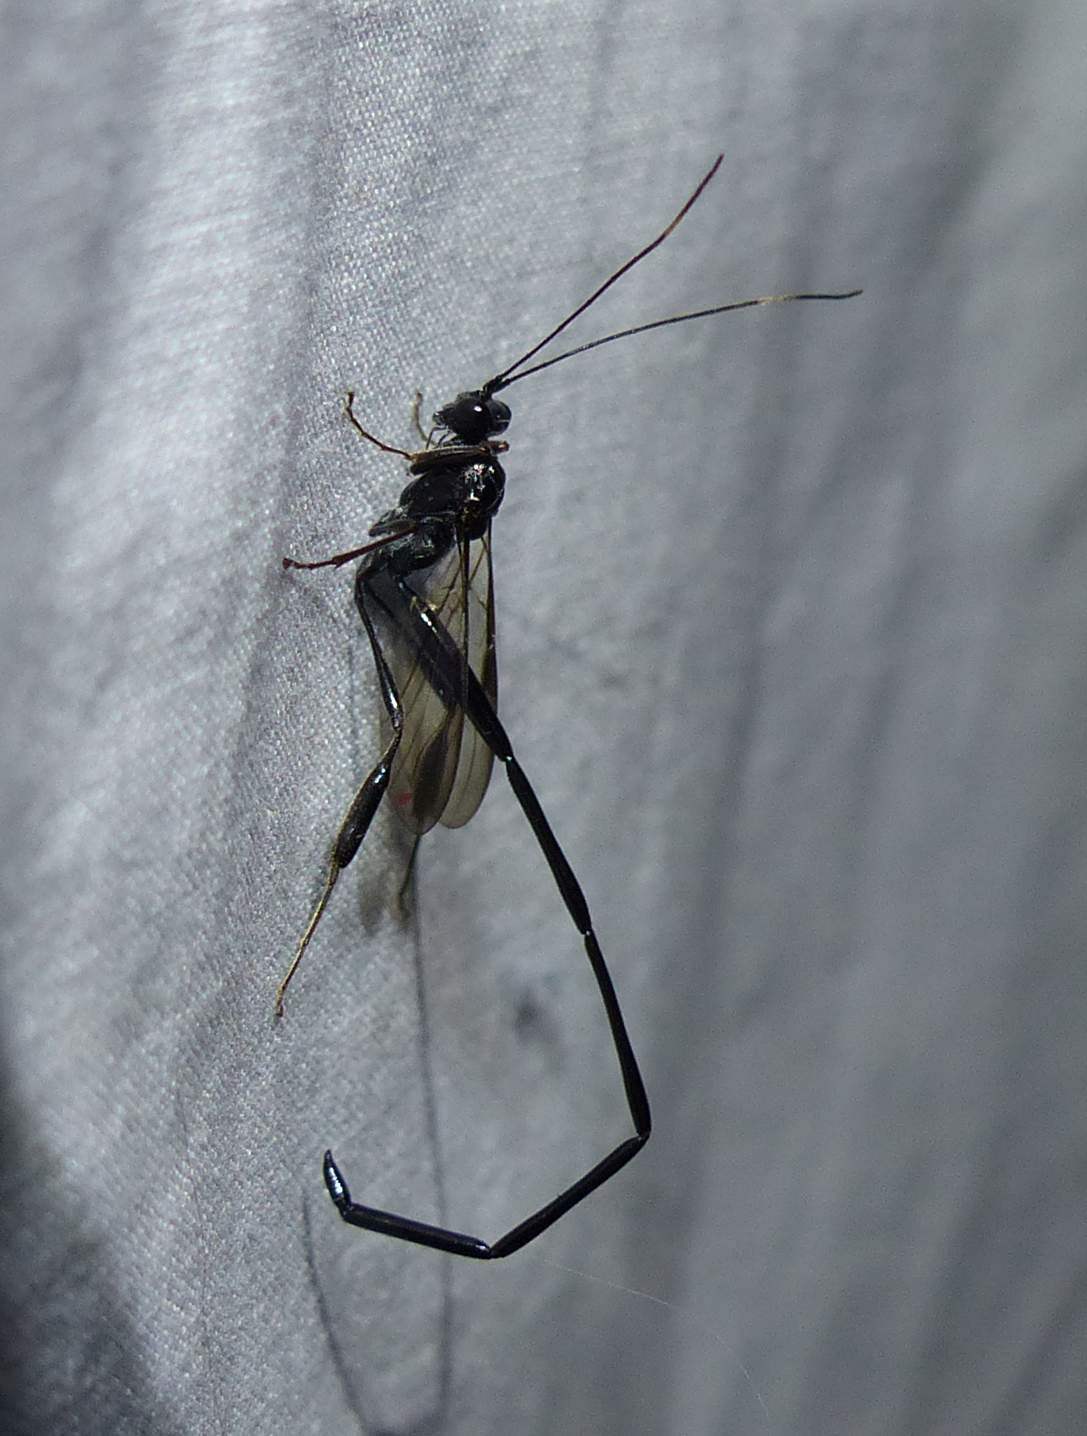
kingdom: Animalia
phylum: Arthropoda
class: Insecta
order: Hymenoptera
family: Pelecinidae
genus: Pelecinus
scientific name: Pelecinus polyturator
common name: American pelecinid wasp
